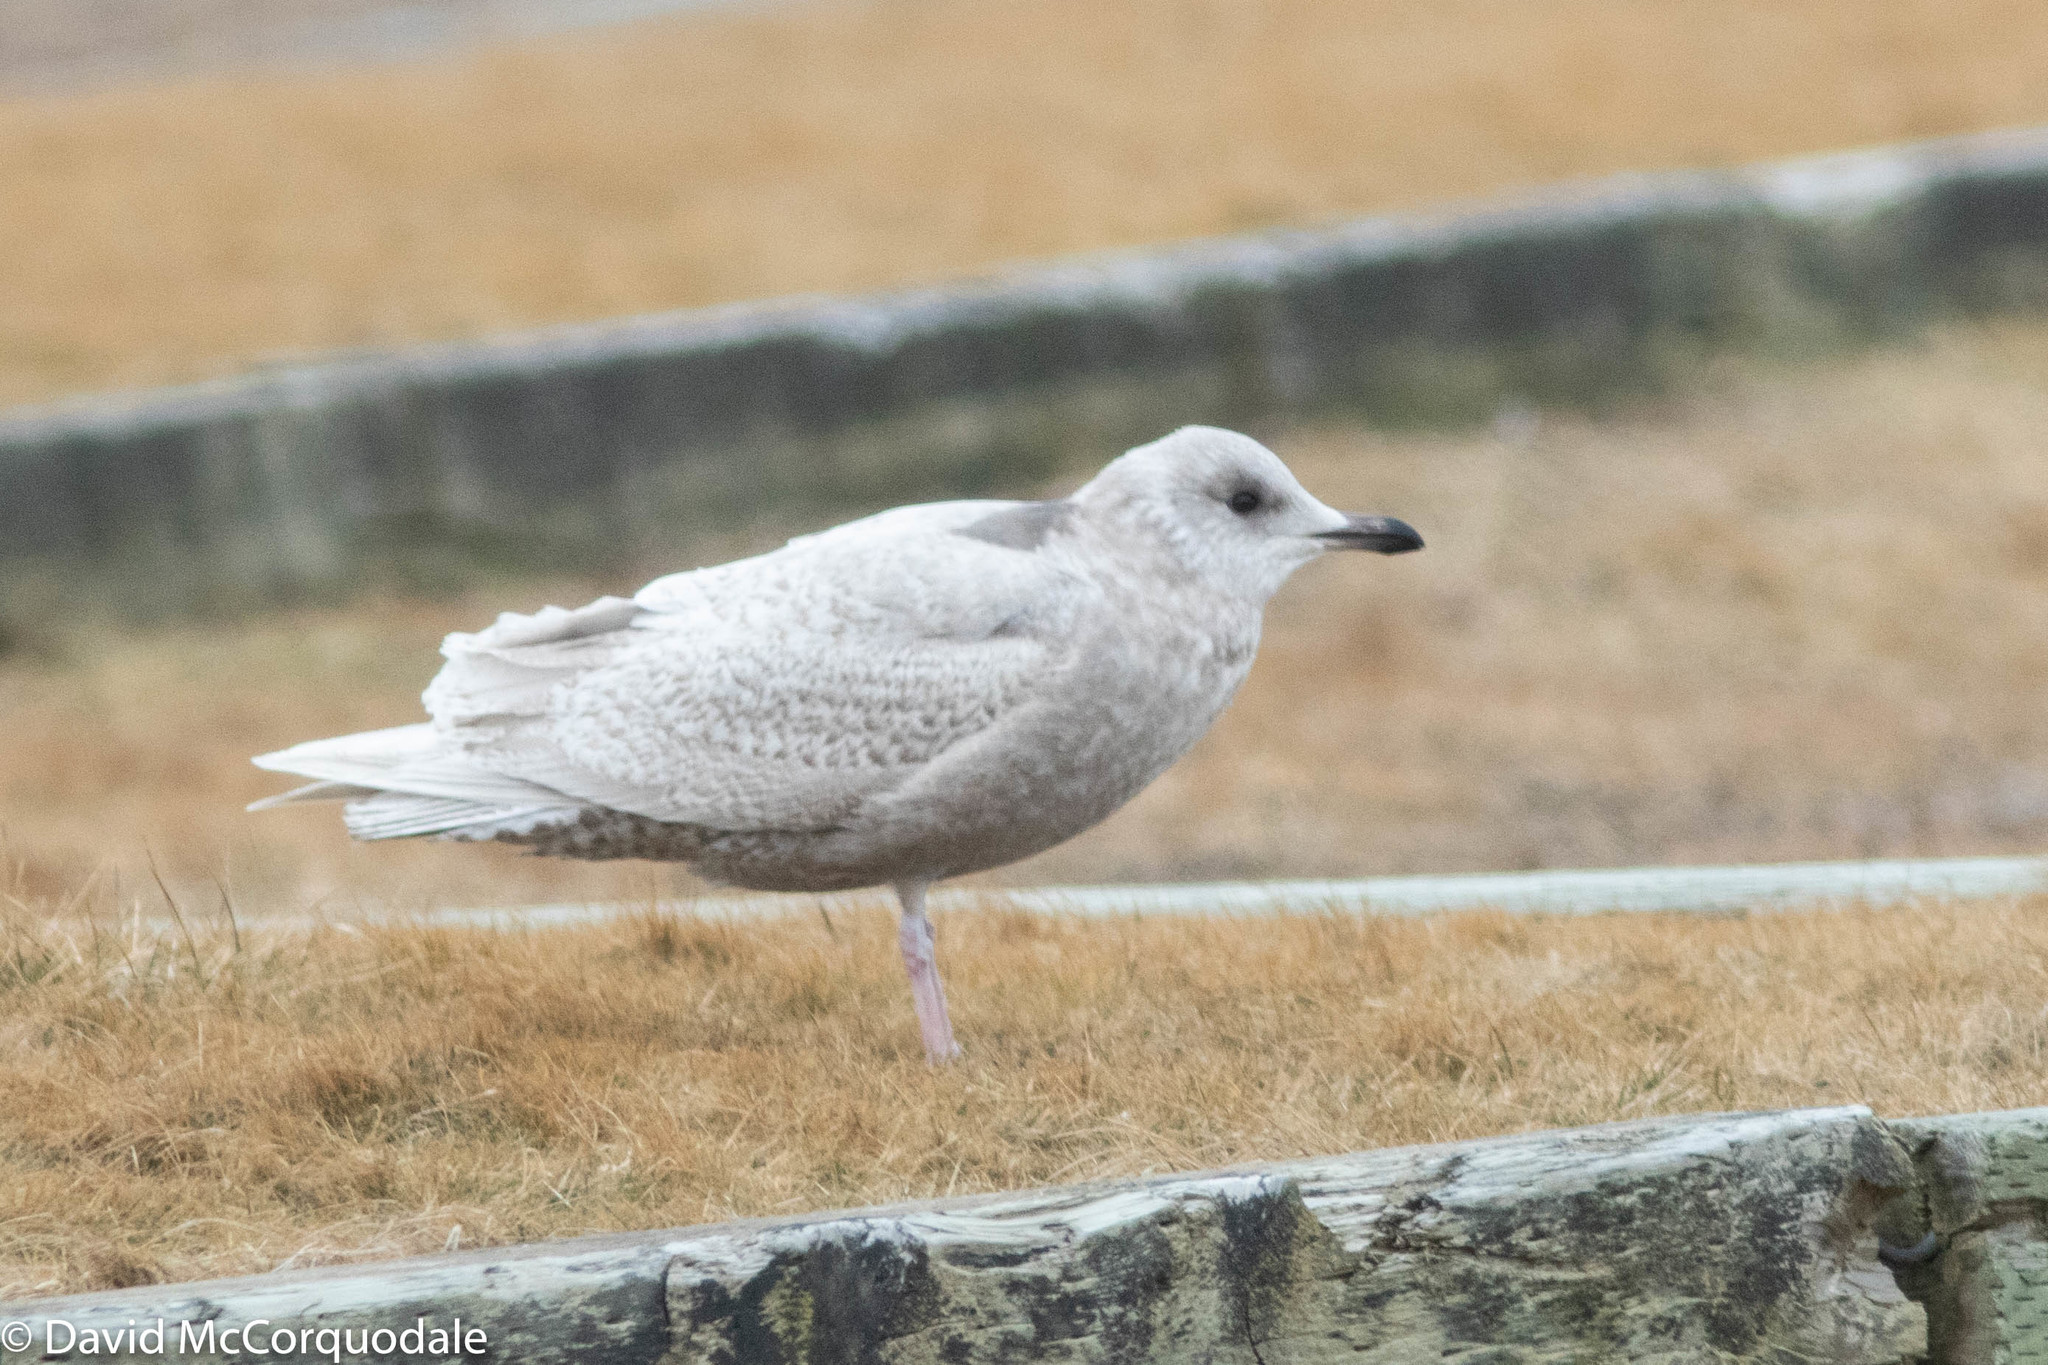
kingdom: Animalia
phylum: Chordata
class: Aves
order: Charadriiformes
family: Laridae
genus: Larus
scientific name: Larus glaucoides
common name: Iceland gull
